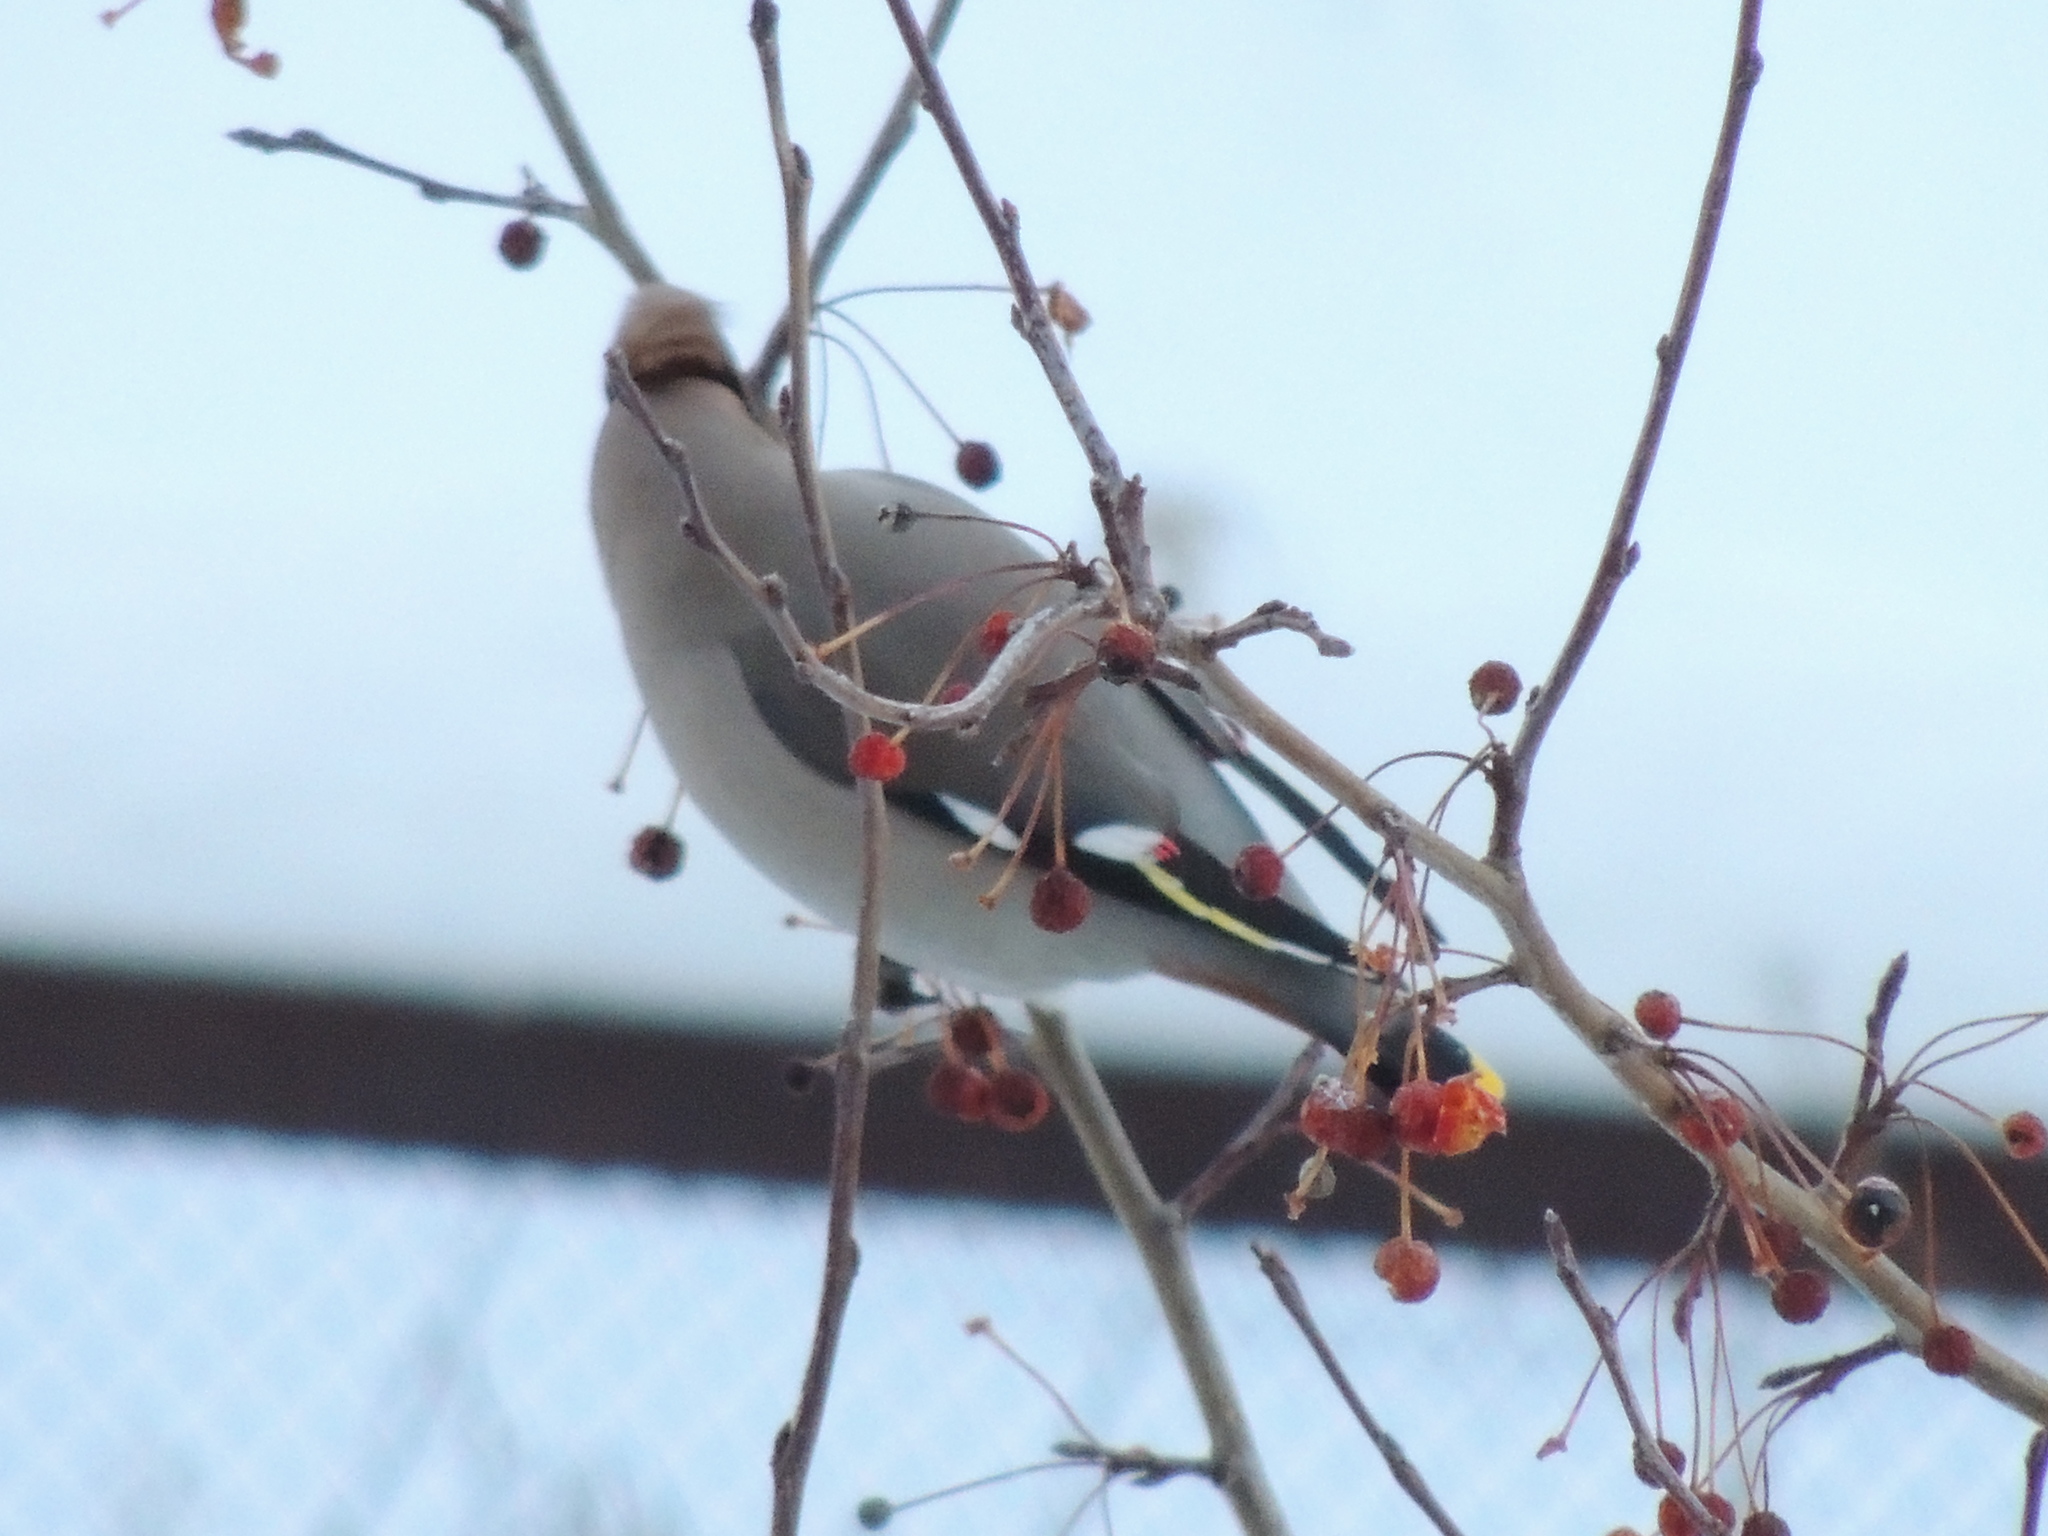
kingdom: Animalia
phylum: Chordata
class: Aves
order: Passeriformes
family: Bombycillidae
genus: Bombycilla
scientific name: Bombycilla garrulus
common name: Bohemian waxwing
